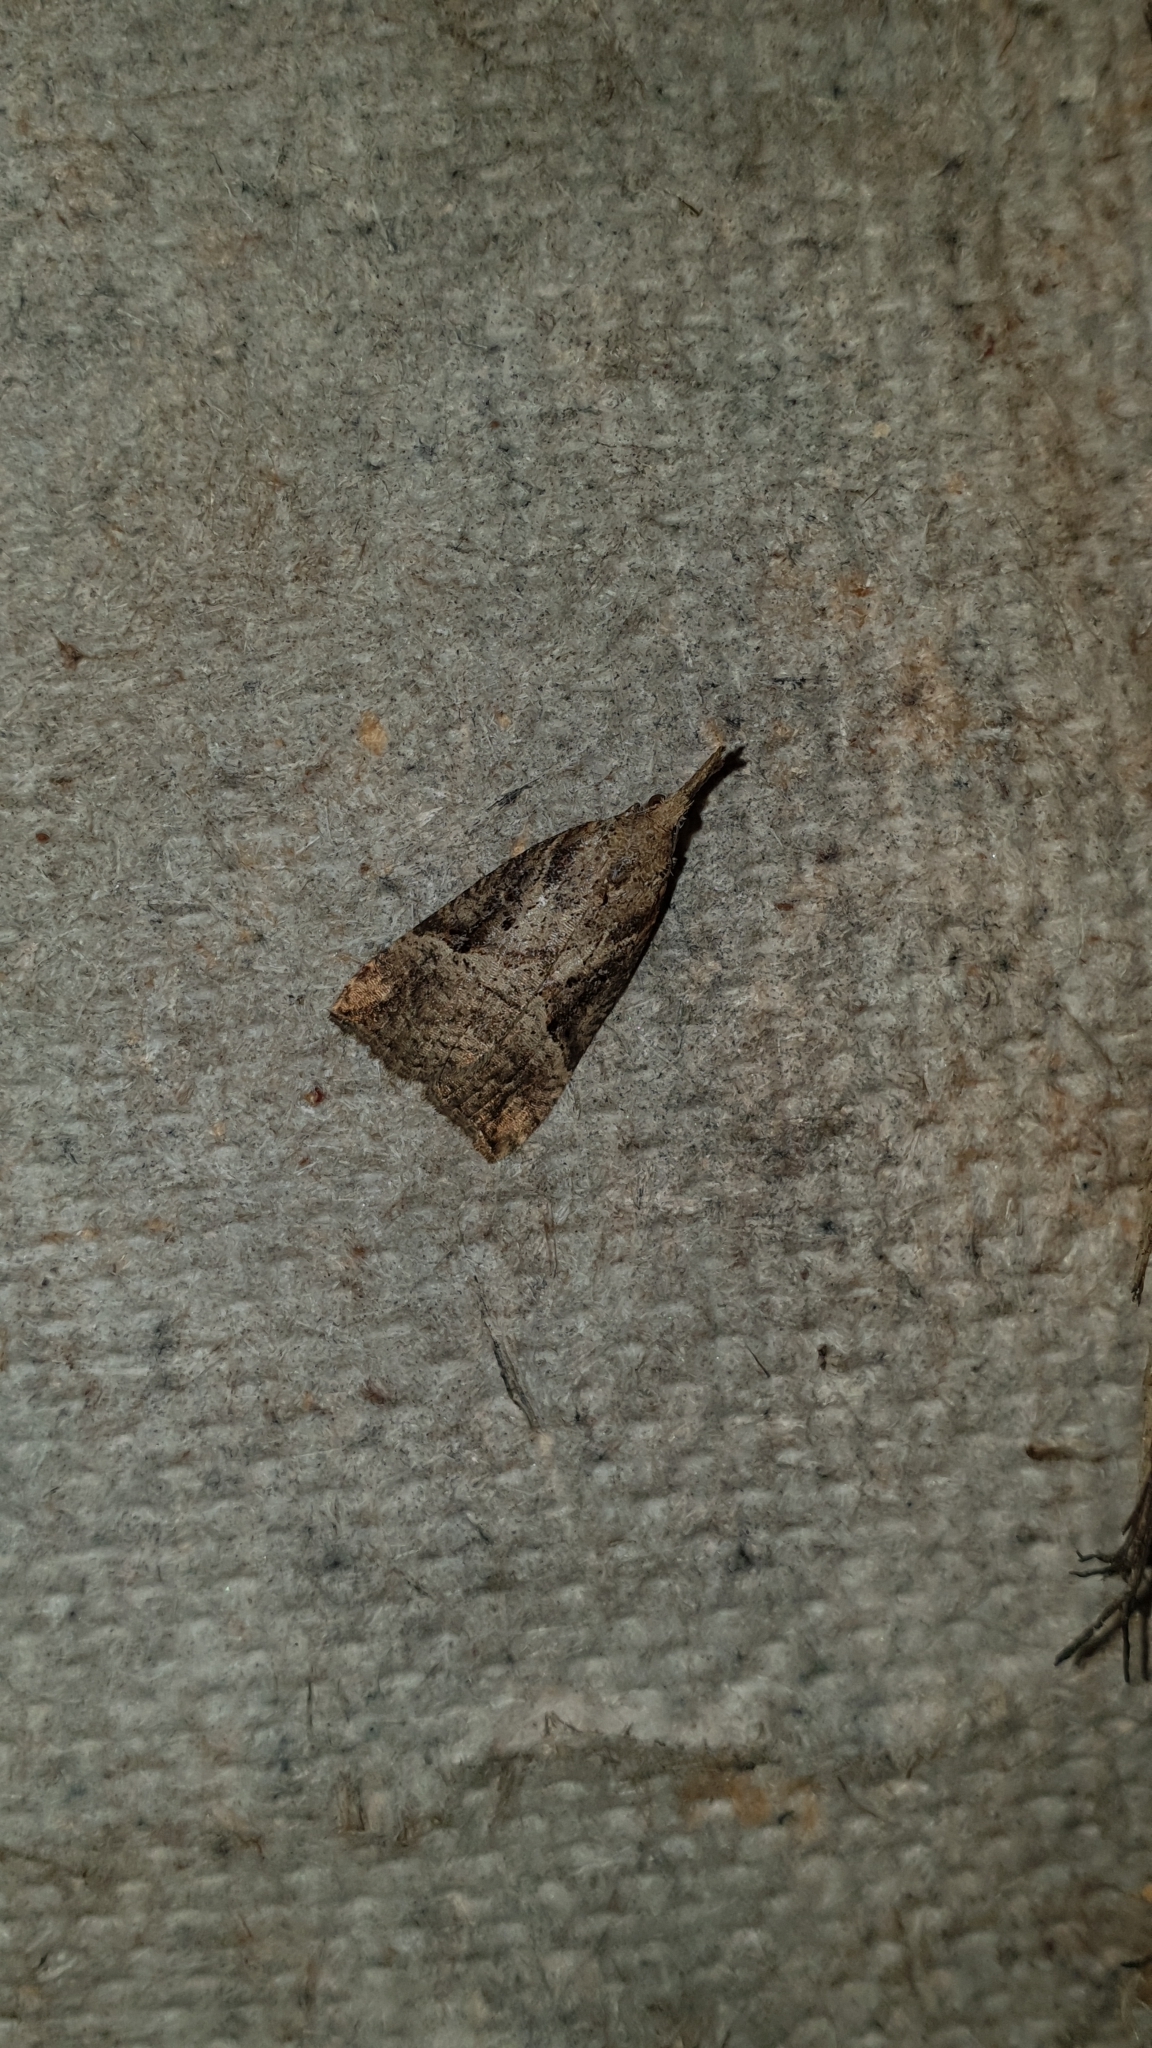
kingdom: Animalia
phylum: Arthropoda
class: Insecta
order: Lepidoptera
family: Erebidae
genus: Hypena
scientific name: Hypena rostralis
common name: Buttoned snout
